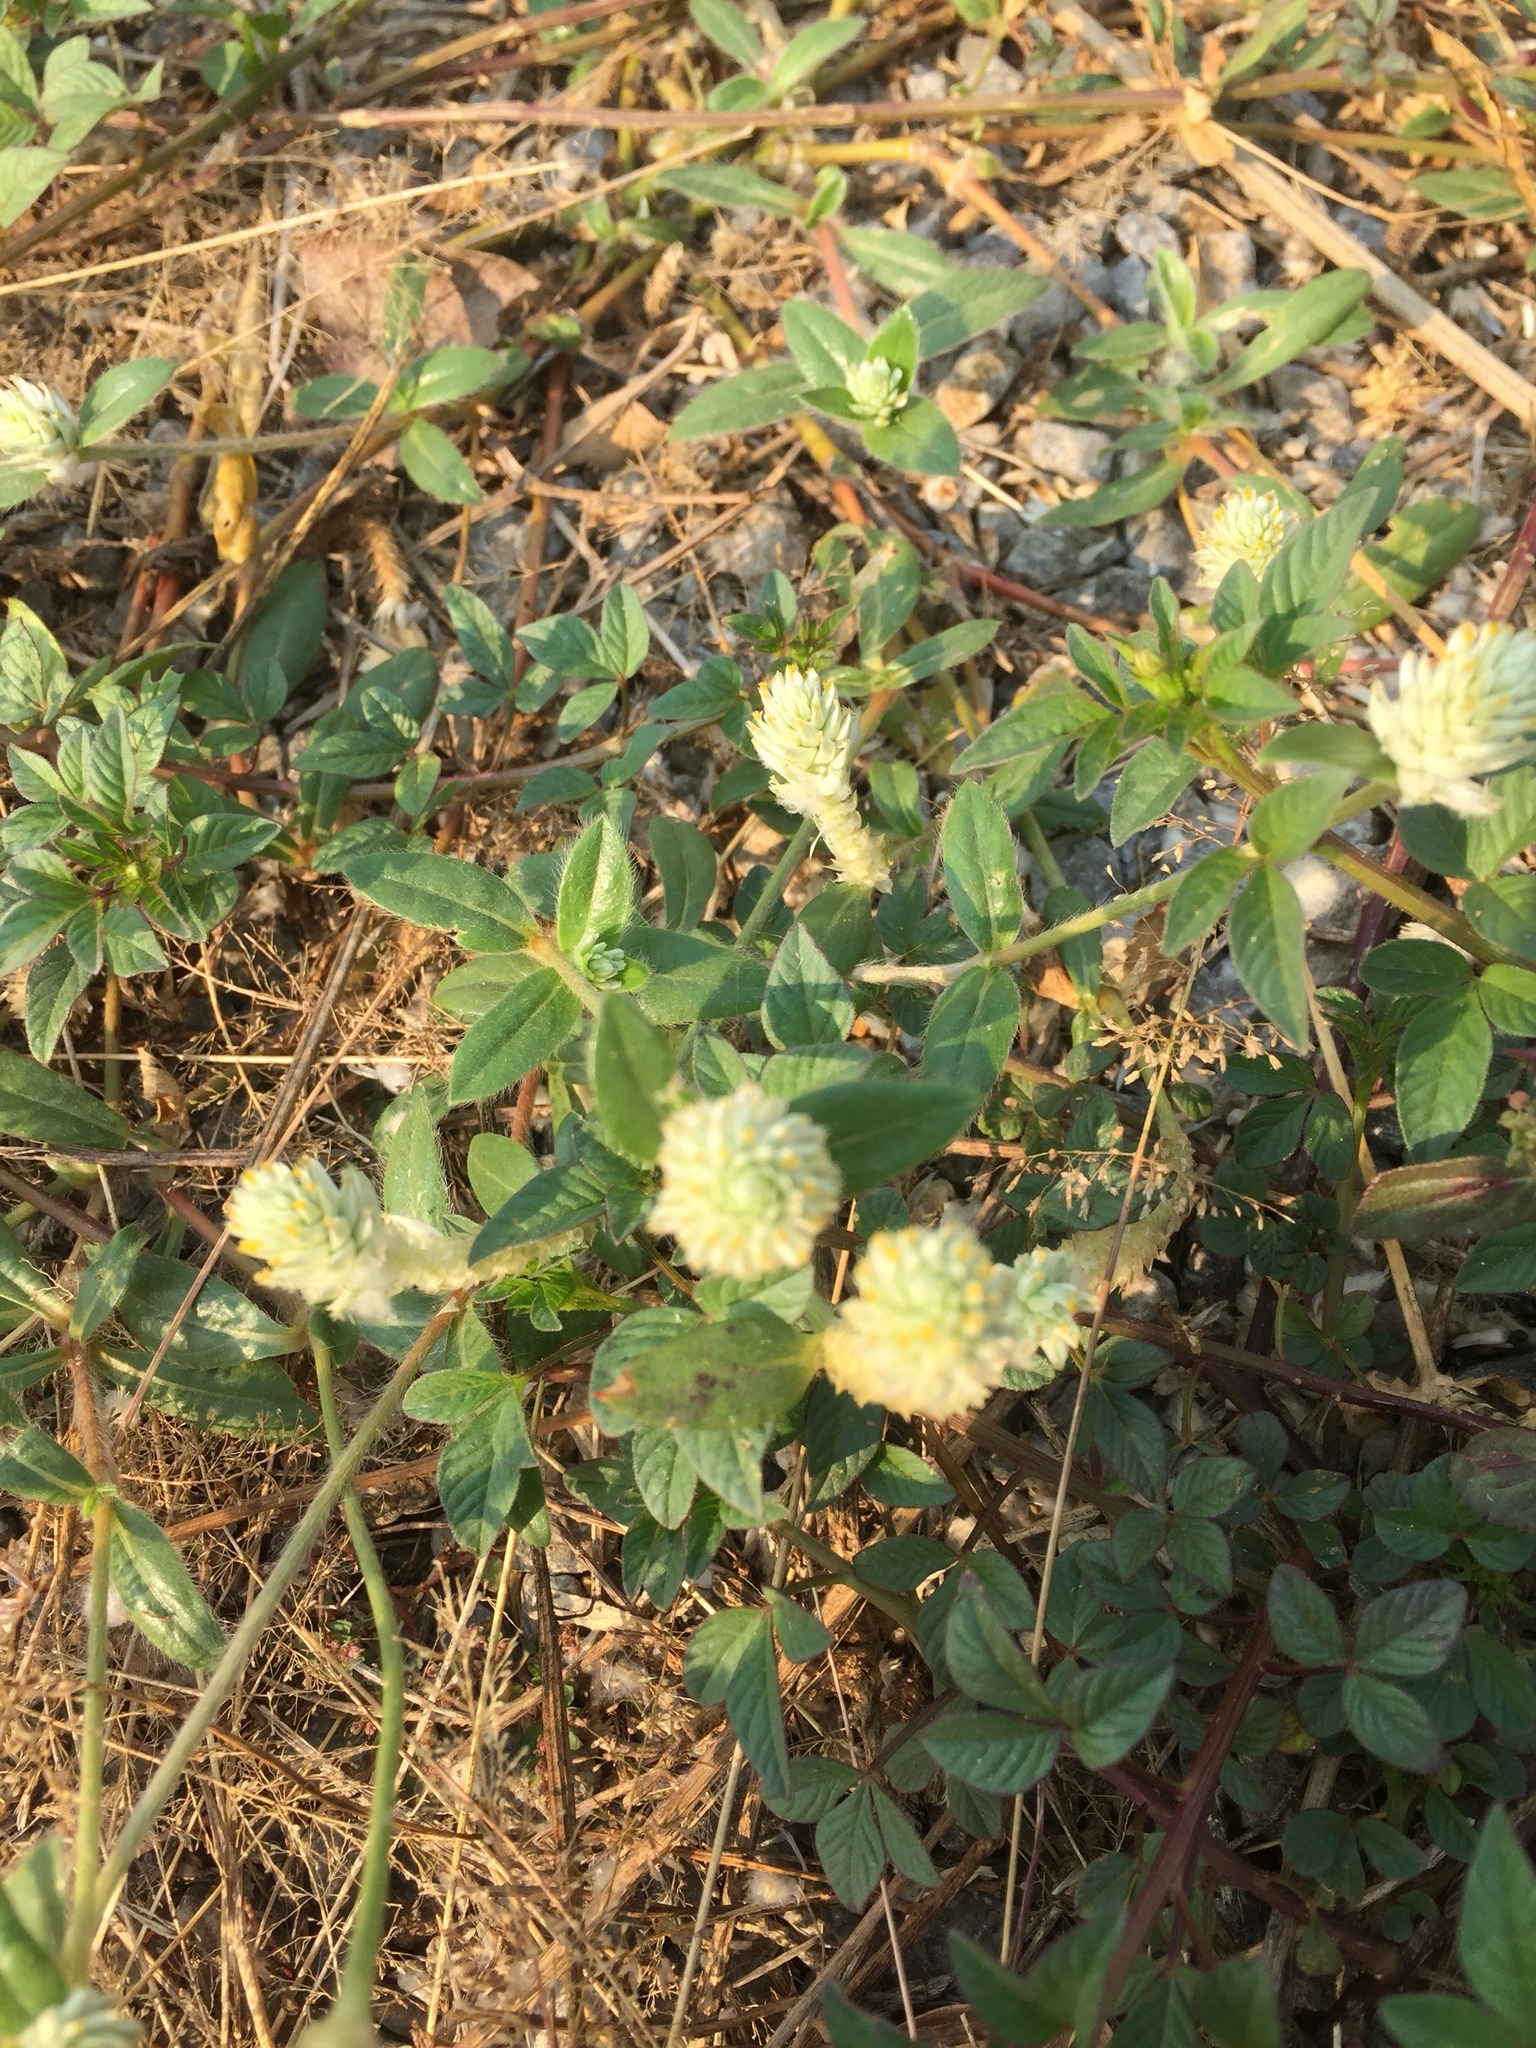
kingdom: Plantae
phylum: Tracheophyta
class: Magnoliopsida
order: Caryophyllales
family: Amaranthaceae
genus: Gomphrena
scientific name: Gomphrena celosioides
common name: Gomphrena-weed
